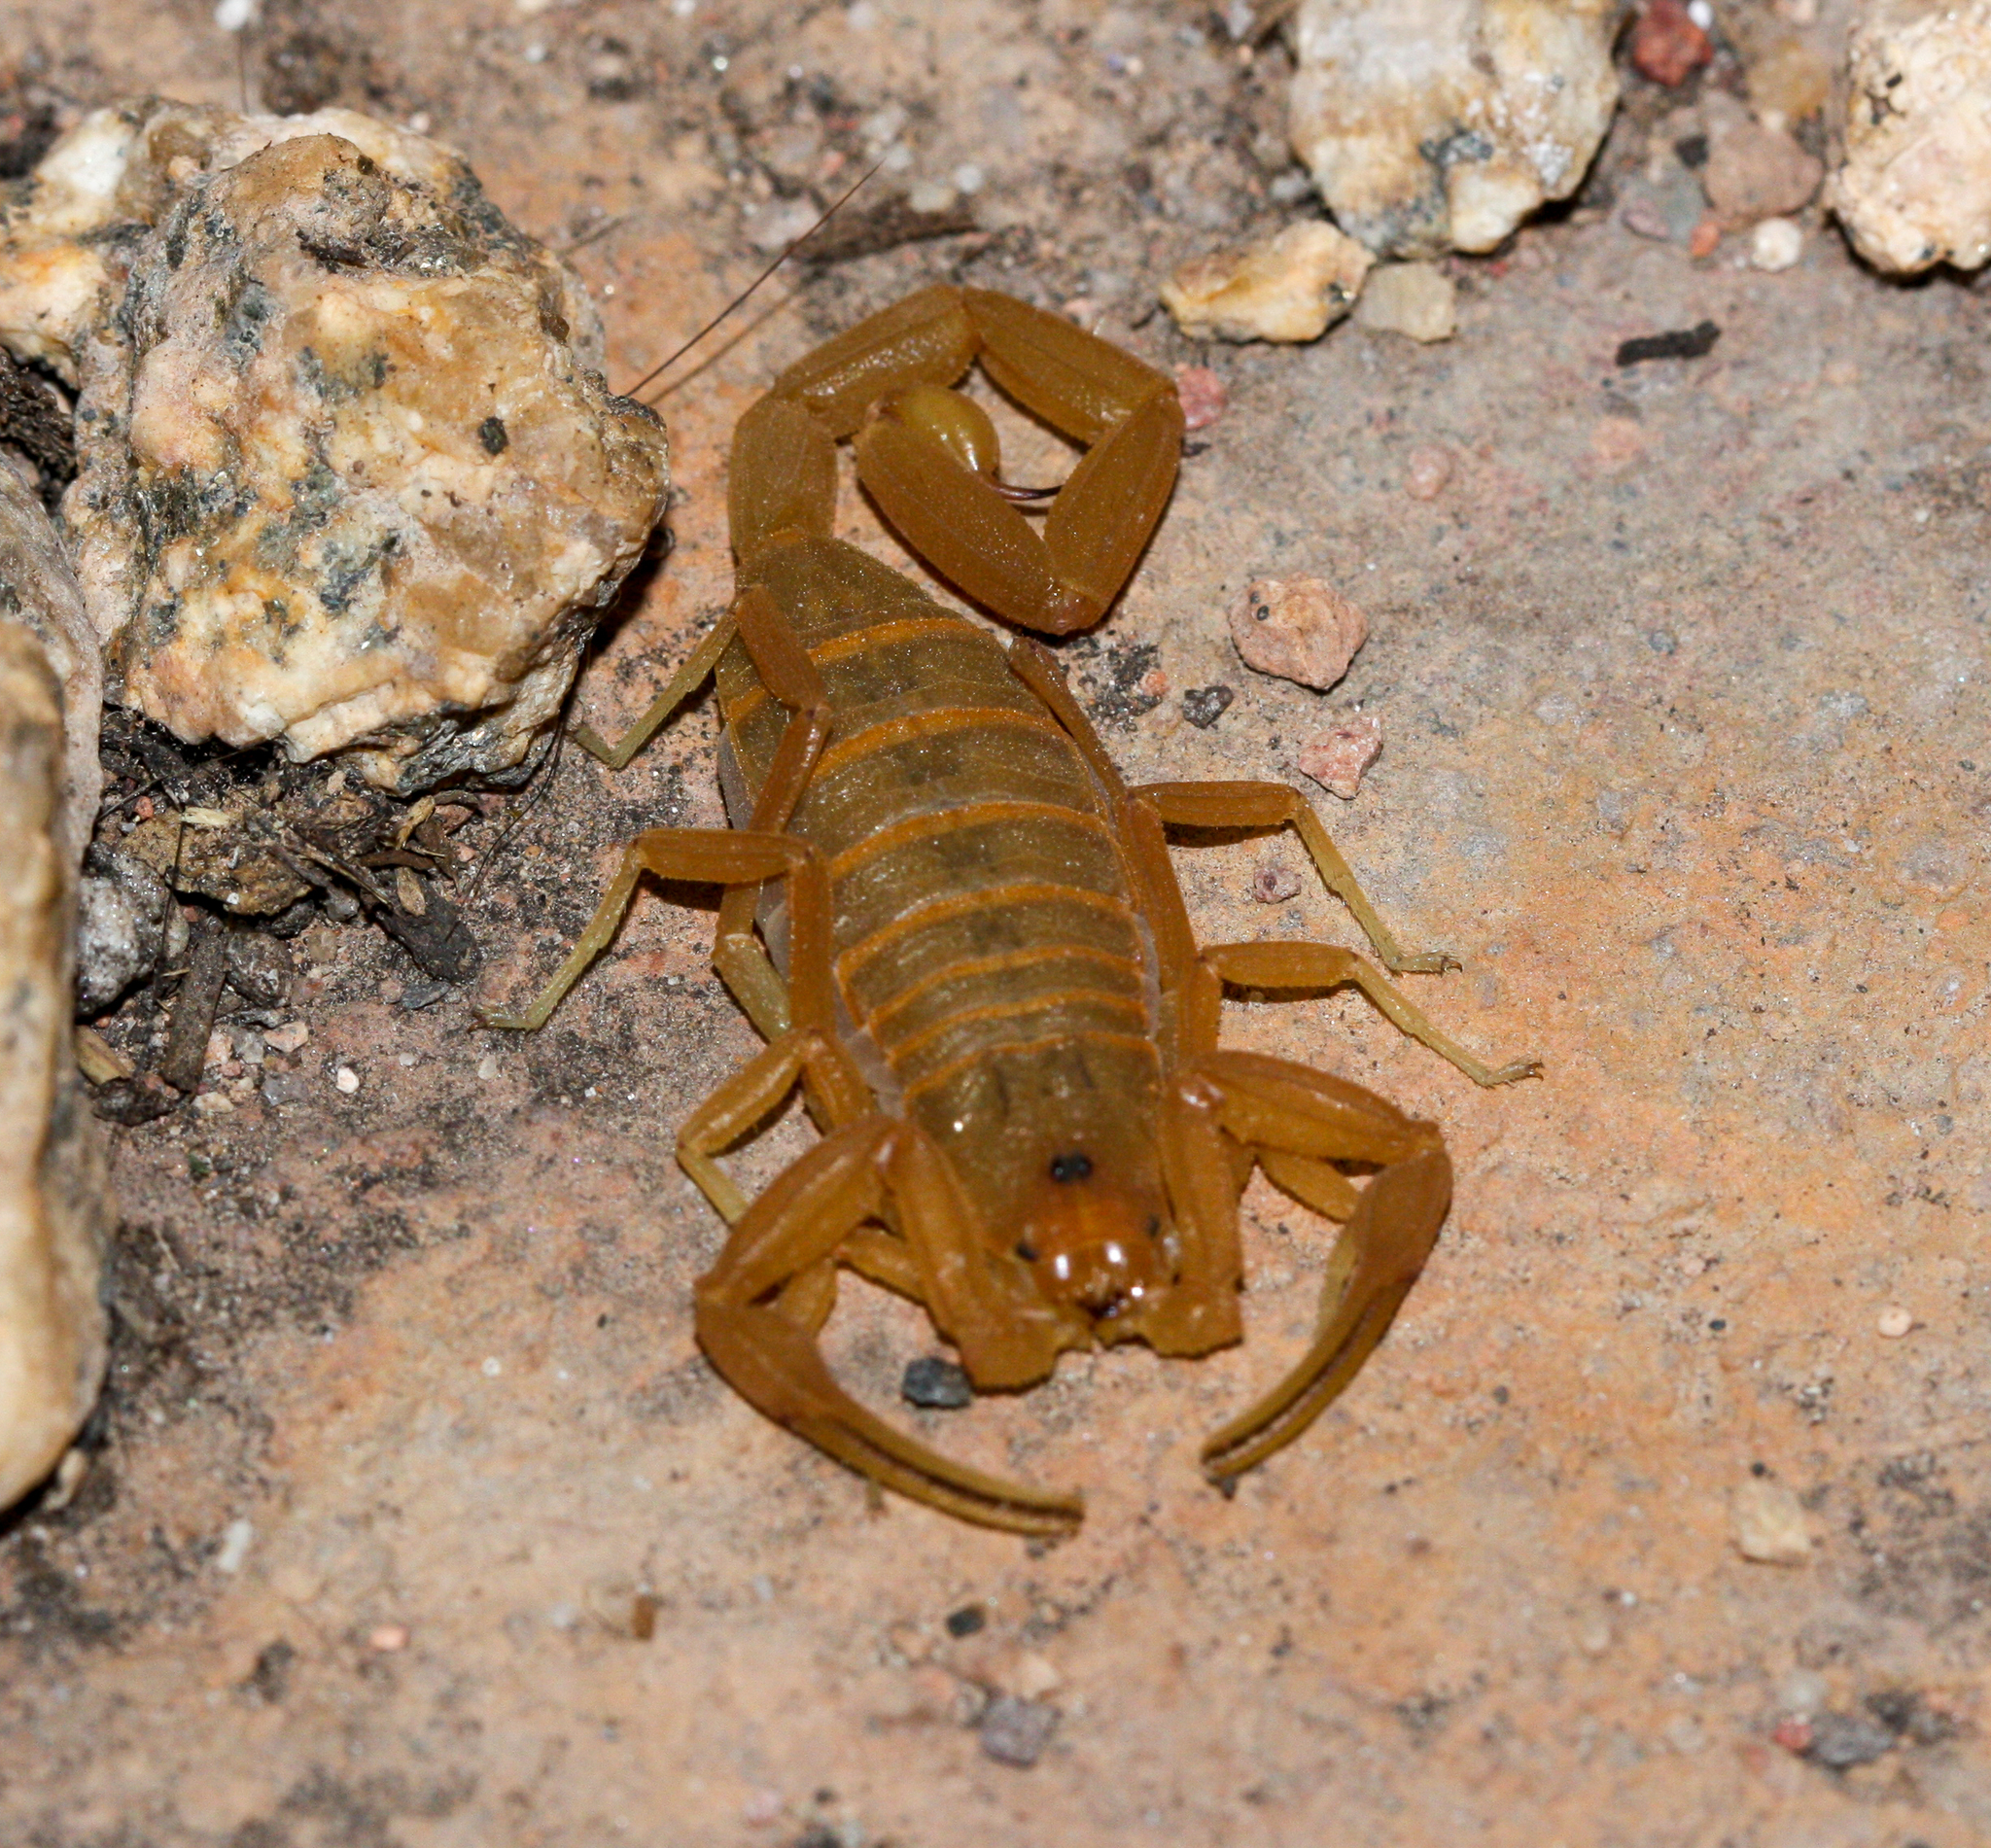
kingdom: Animalia
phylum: Arthropoda
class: Arachnida
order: Scorpiones
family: Buthidae
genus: Centruroides
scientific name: Centruroides sculpturatus
